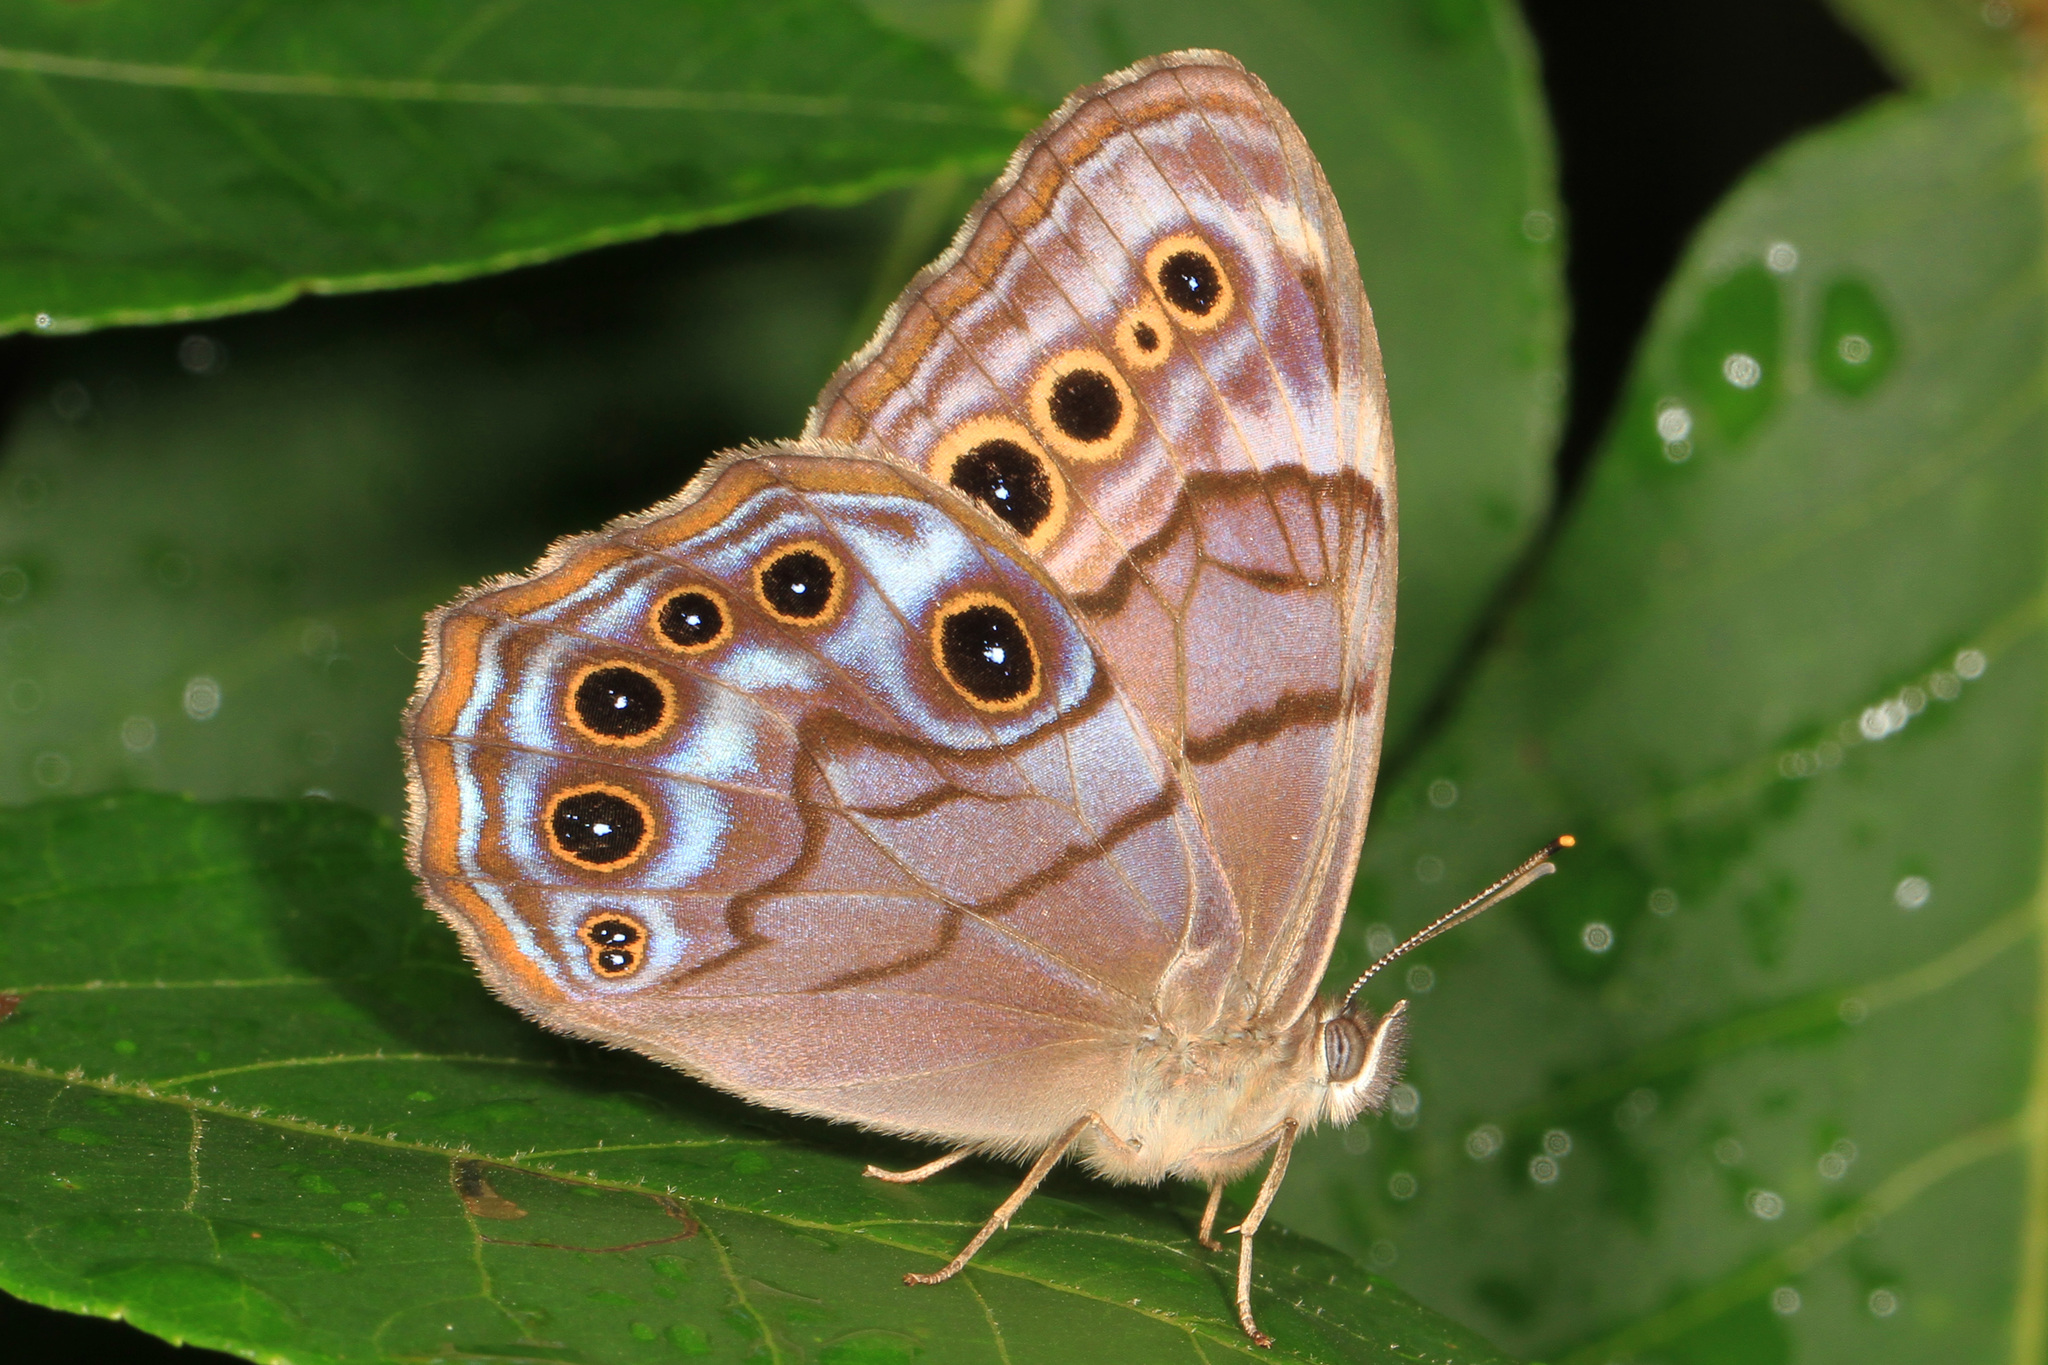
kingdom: Animalia
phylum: Arthropoda
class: Insecta
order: Lepidoptera
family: Nymphalidae
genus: Lethe
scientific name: Lethe anthedon
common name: Northern pearly-eye
